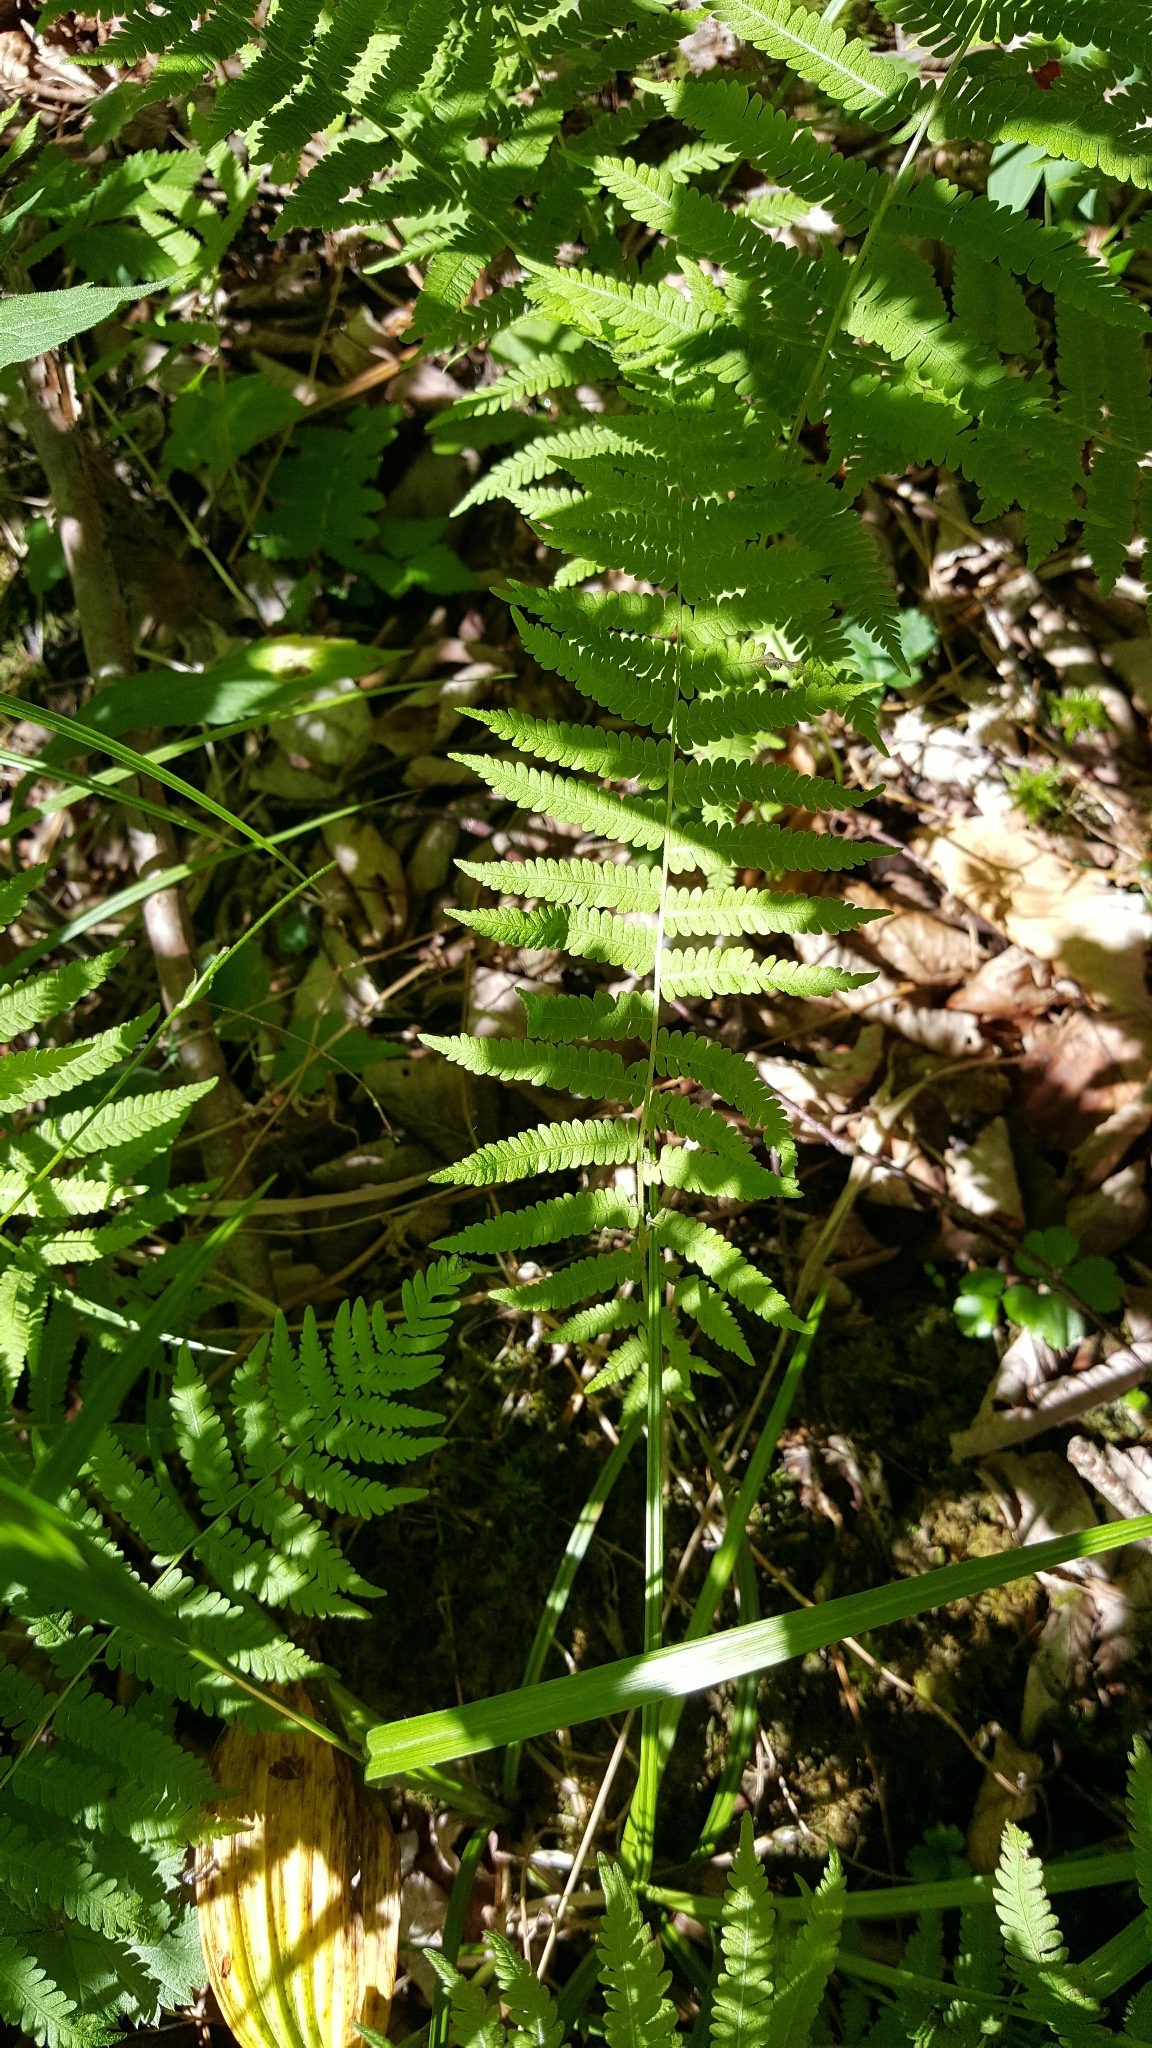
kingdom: Plantae
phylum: Tracheophyta
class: Polypodiopsida
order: Polypodiales
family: Thelypteridaceae
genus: Amauropelta
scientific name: Amauropelta noveboracensis
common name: New york fern
